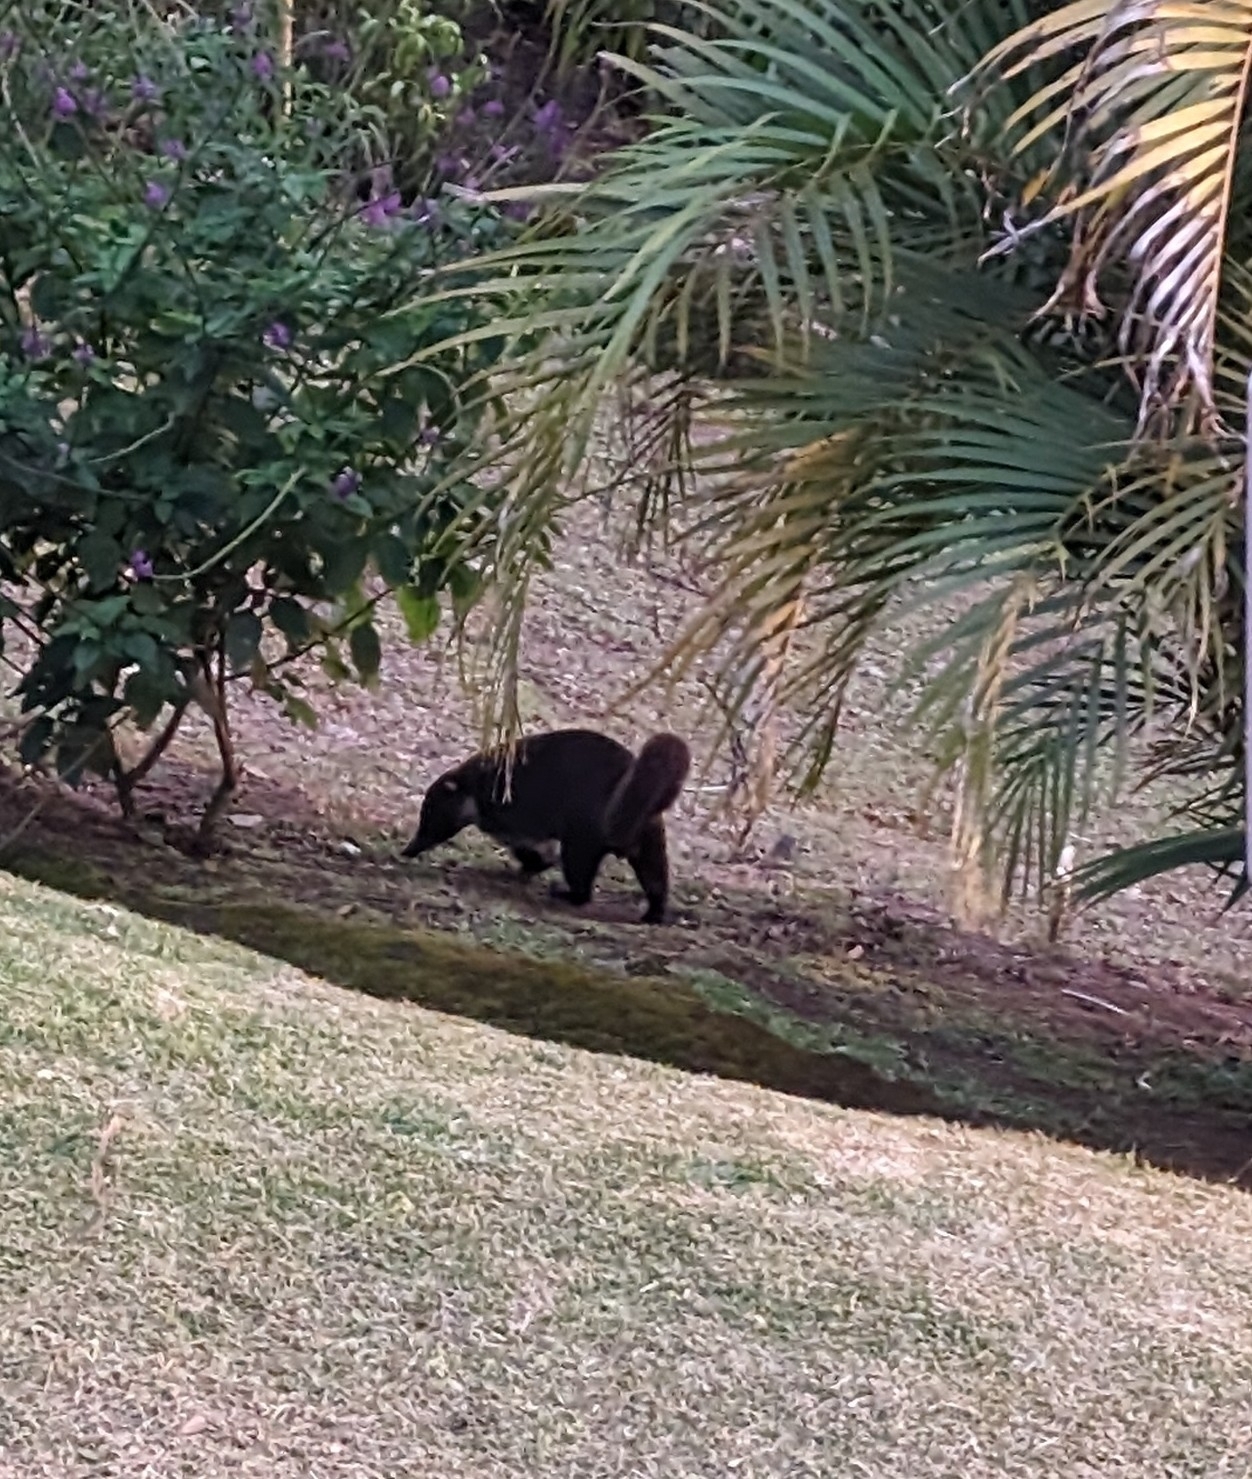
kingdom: Animalia
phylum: Chordata
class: Mammalia
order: Carnivora
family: Procyonidae
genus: Nasua
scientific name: Nasua narica
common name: White-nosed coati
